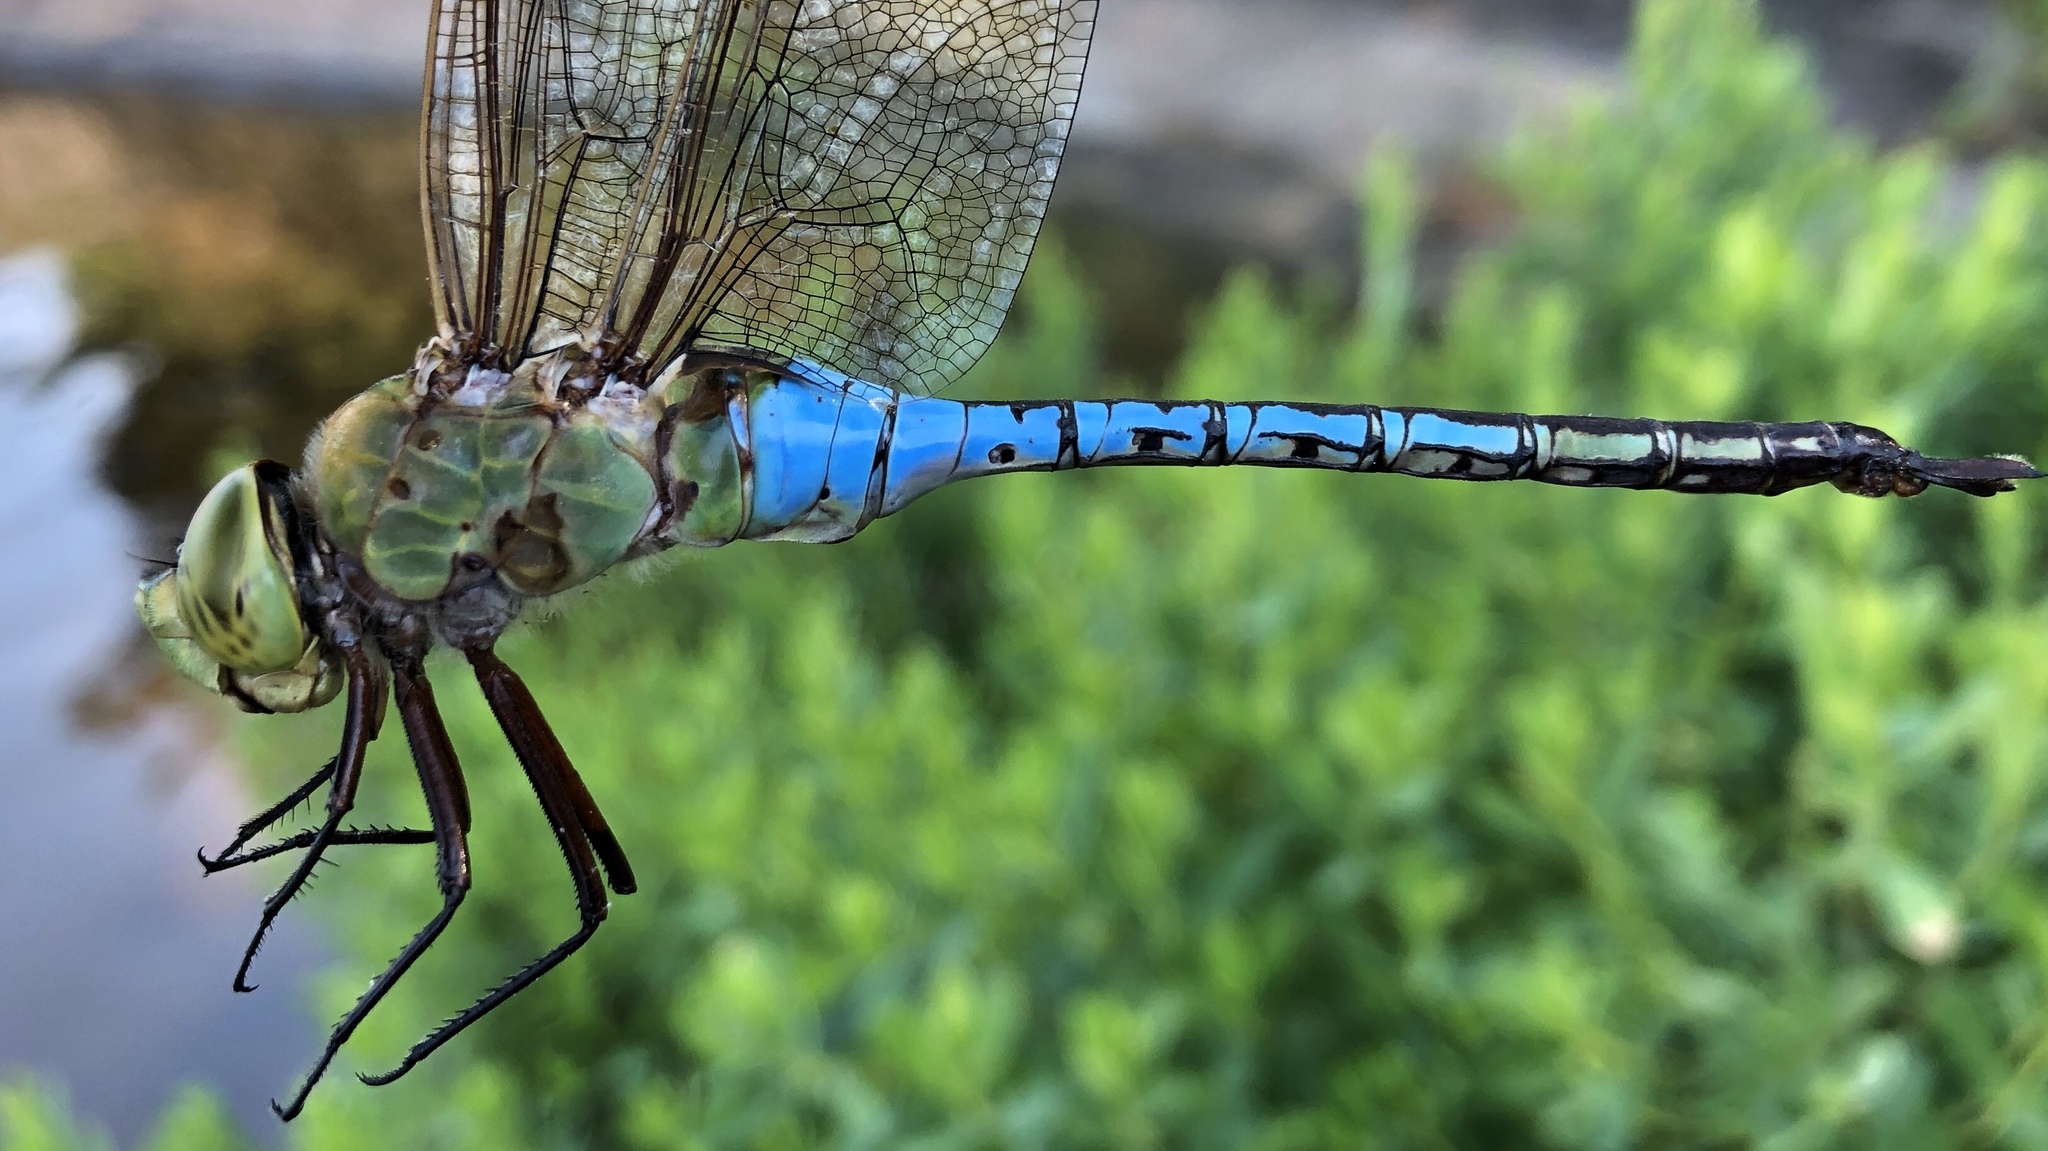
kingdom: Animalia
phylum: Arthropoda
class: Insecta
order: Odonata
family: Aeshnidae
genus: Anax
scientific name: Anax junius
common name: Common green darner
